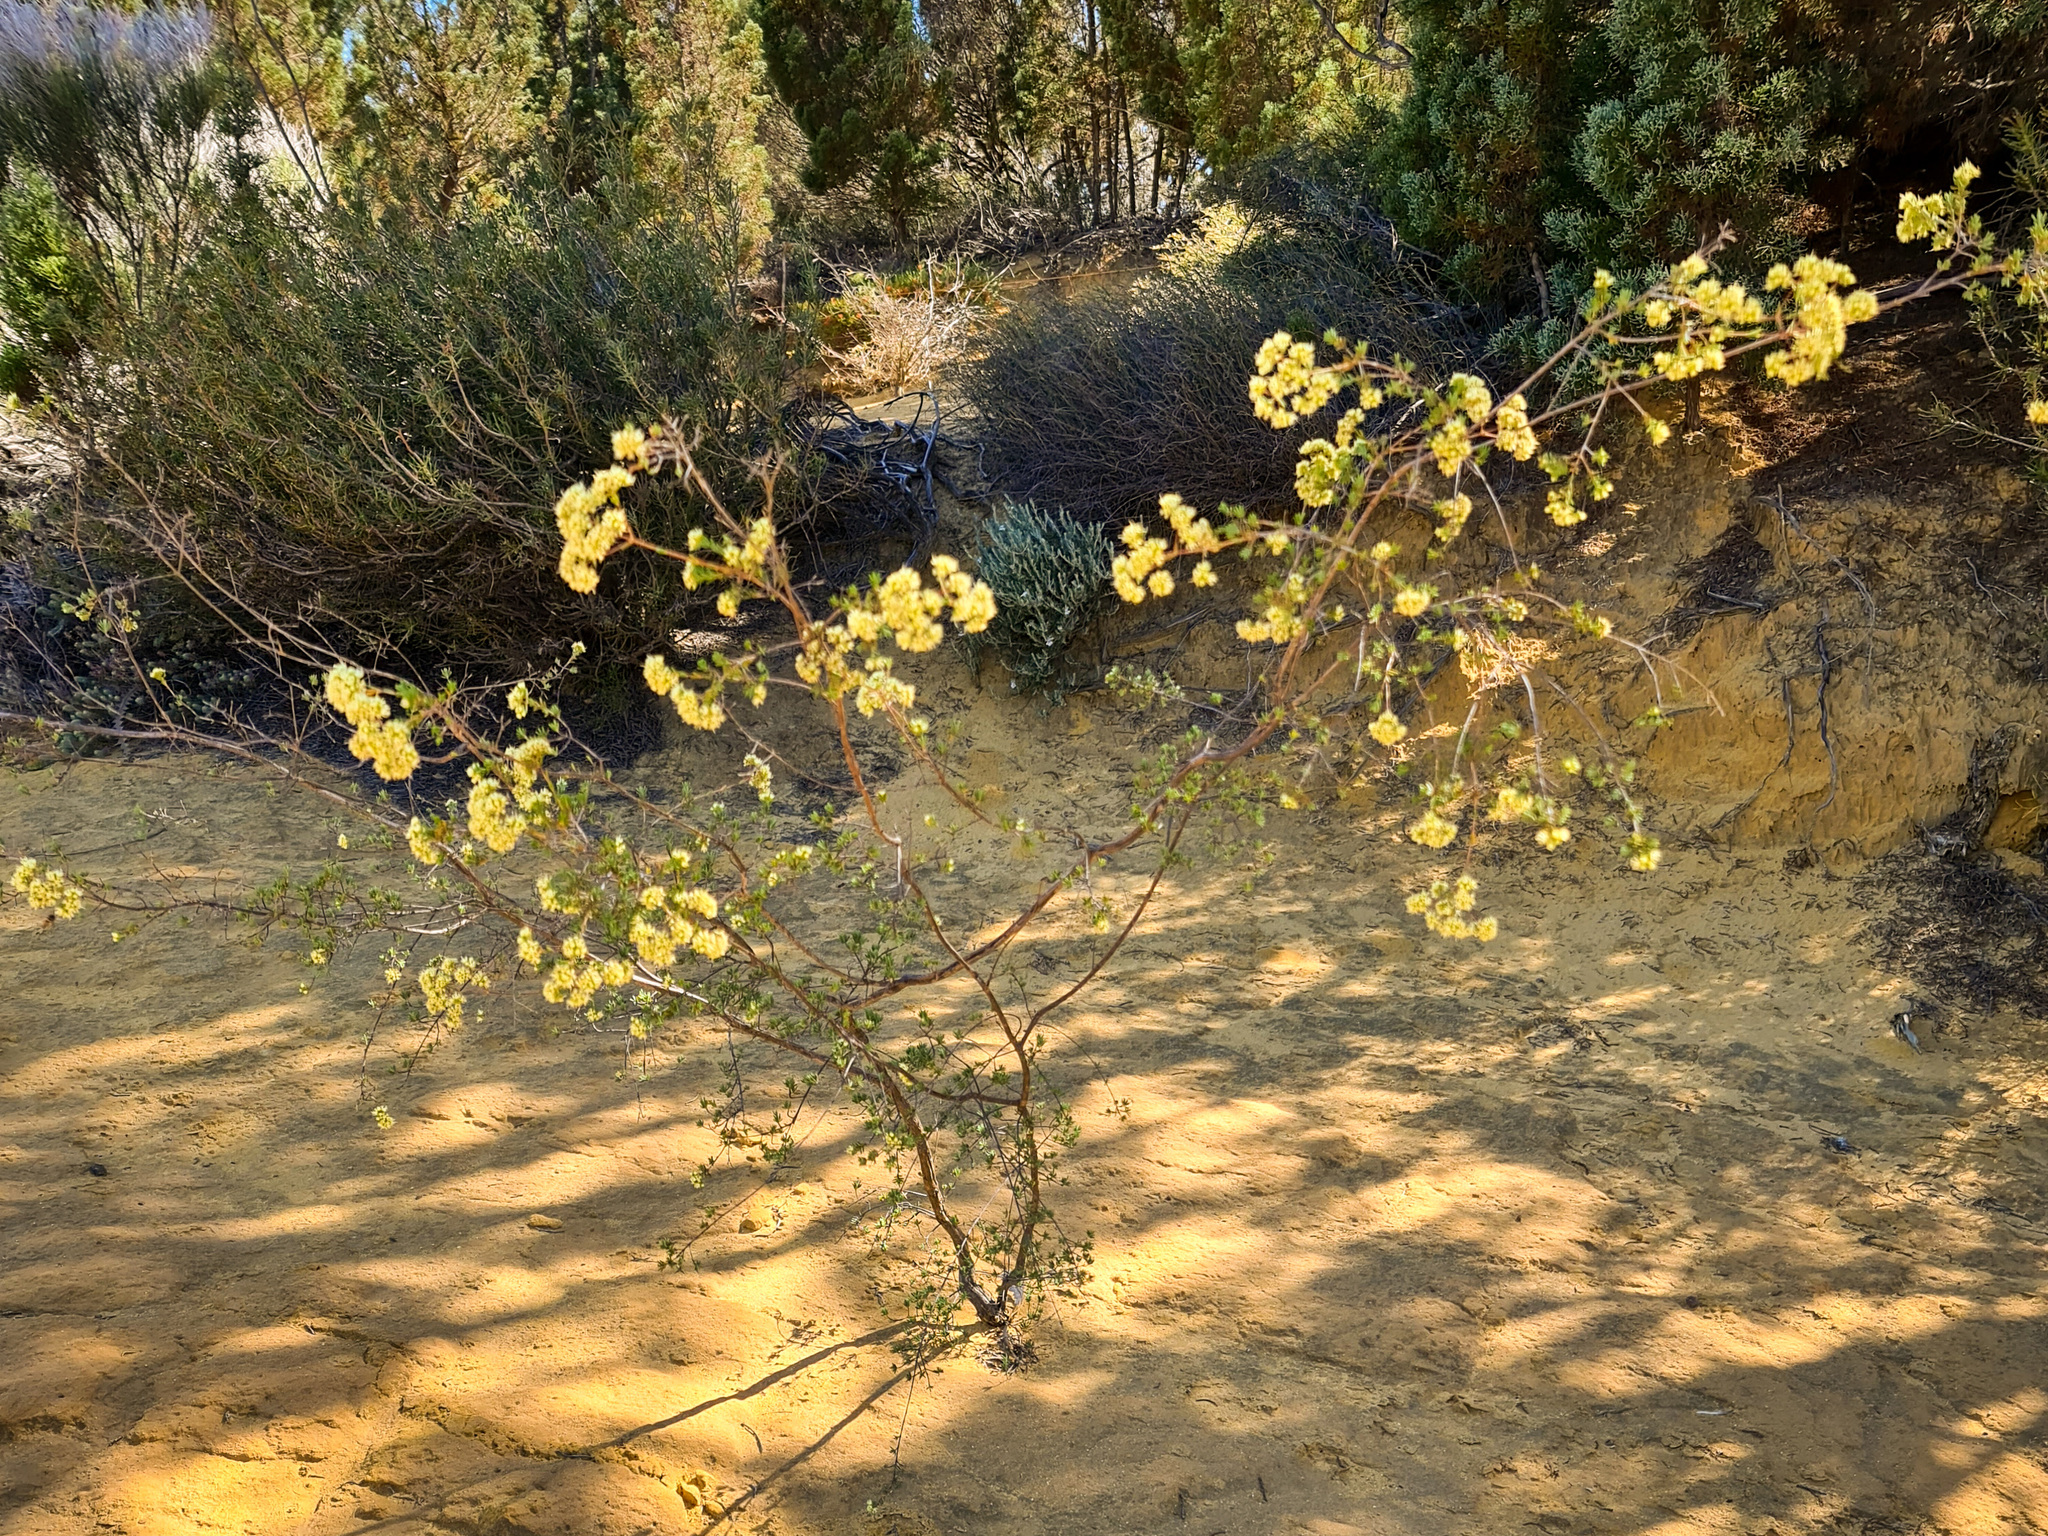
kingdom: Plantae
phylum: Tracheophyta
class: Magnoliopsida
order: Myrtales
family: Myrtaceae
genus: Verticordia
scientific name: Verticordia densiflora
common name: Compact feather-flower
